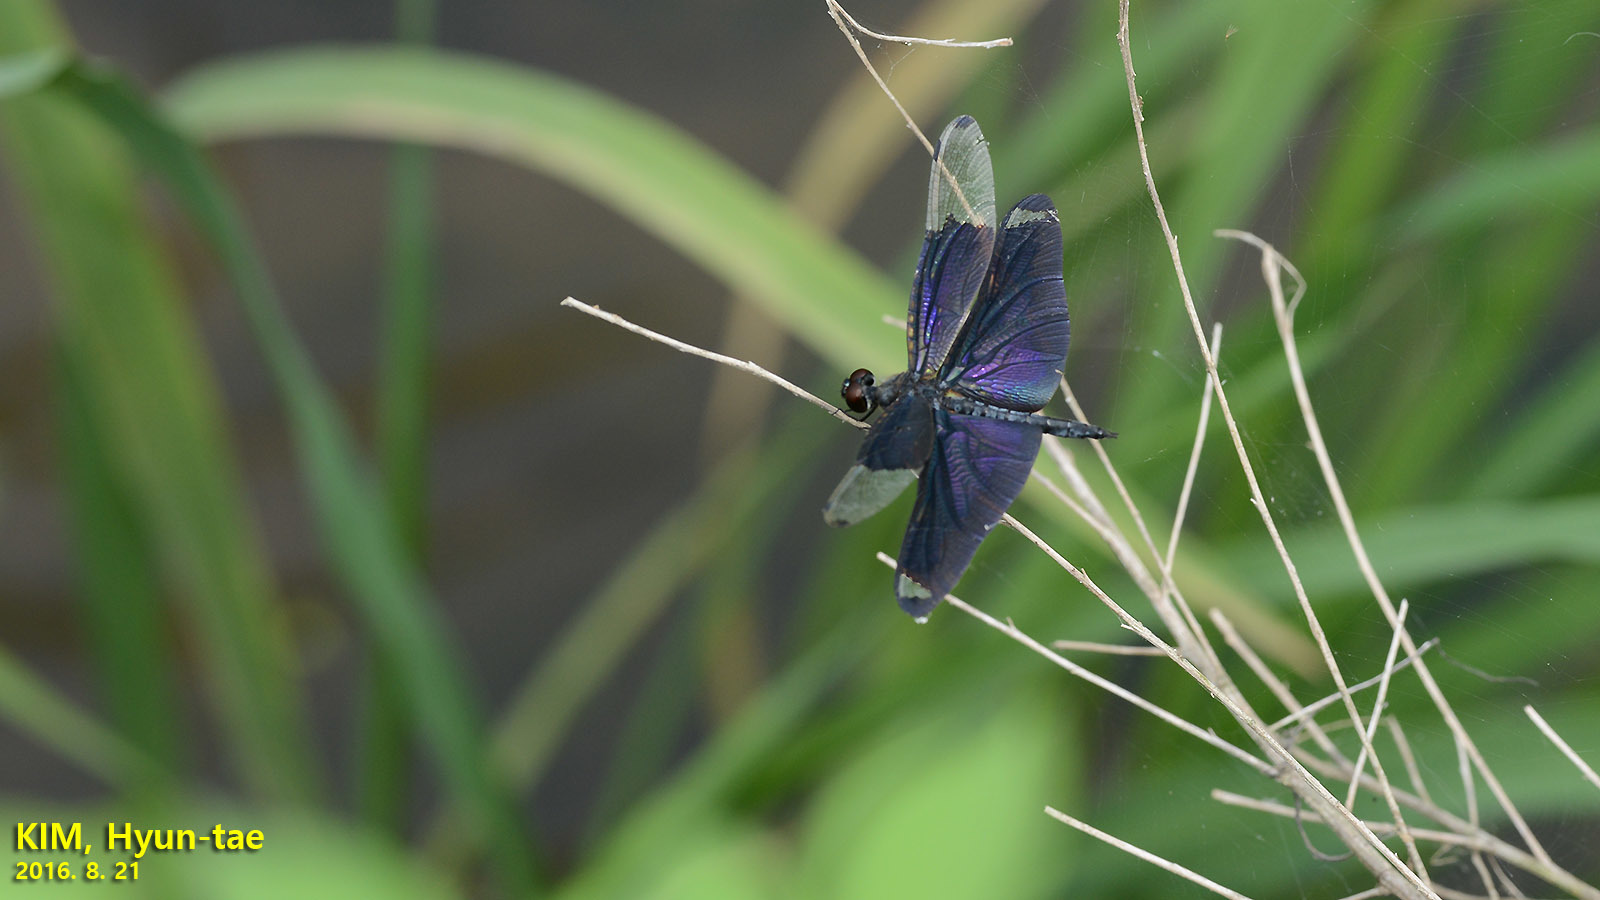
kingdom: Animalia
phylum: Arthropoda
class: Insecta
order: Odonata
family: Libellulidae
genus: Rhyothemis
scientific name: Rhyothemis fuliginosa
